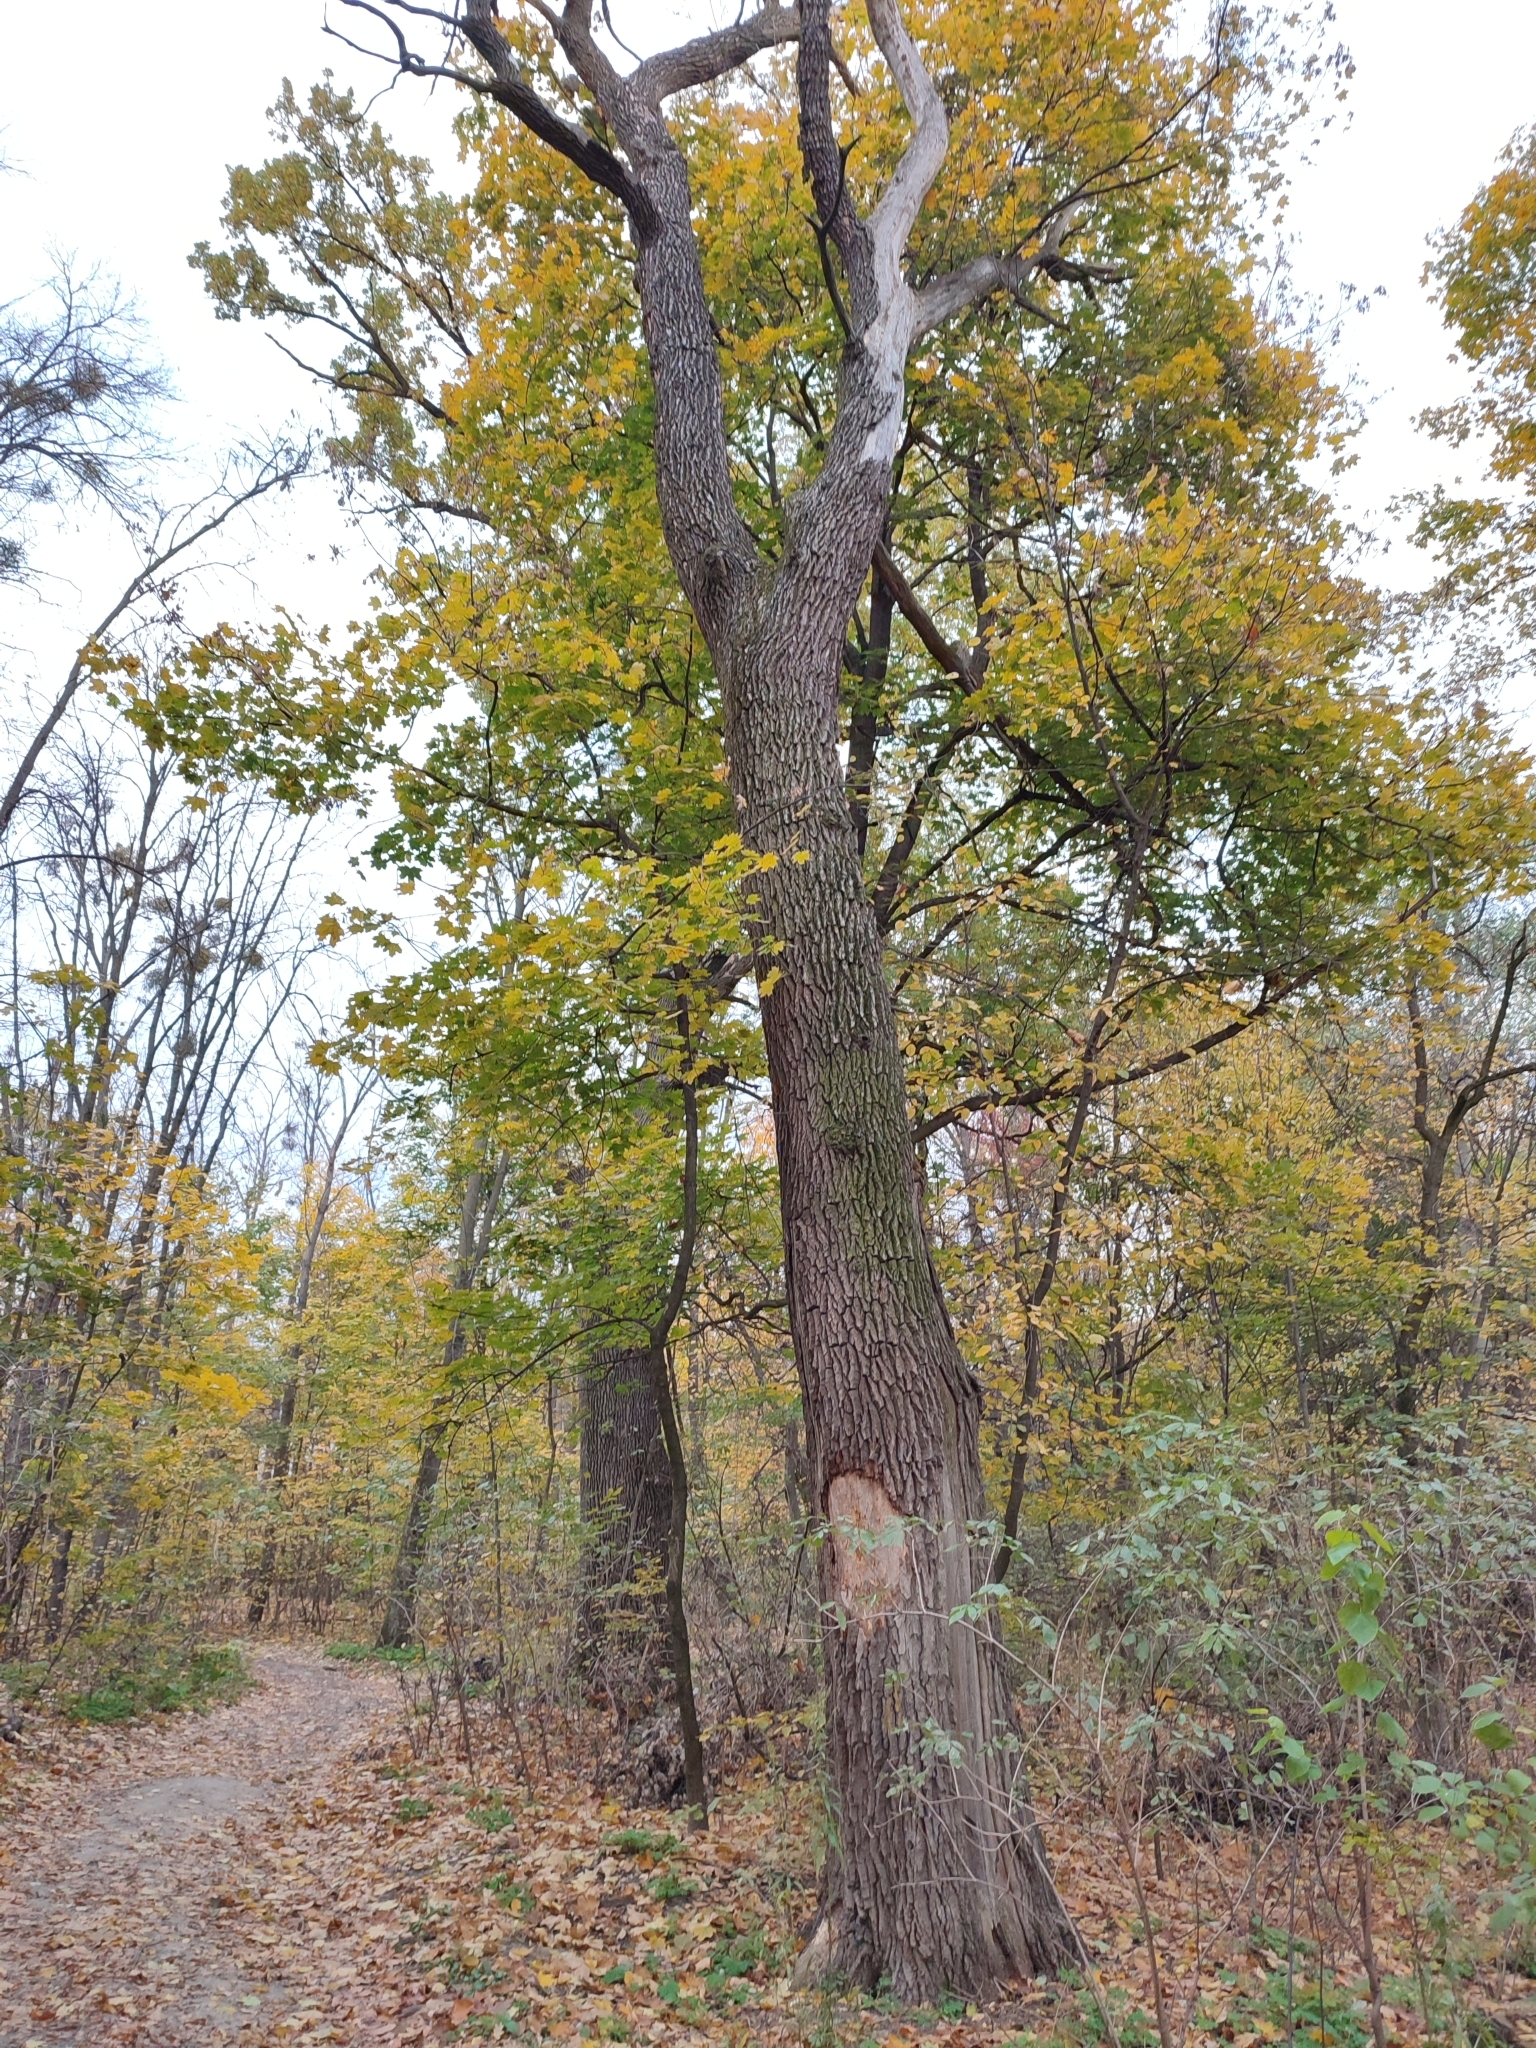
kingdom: Plantae
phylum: Tracheophyta
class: Magnoliopsida
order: Fagales
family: Fagaceae
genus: Quercus
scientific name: Quercus robur
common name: Pedunculate oak
